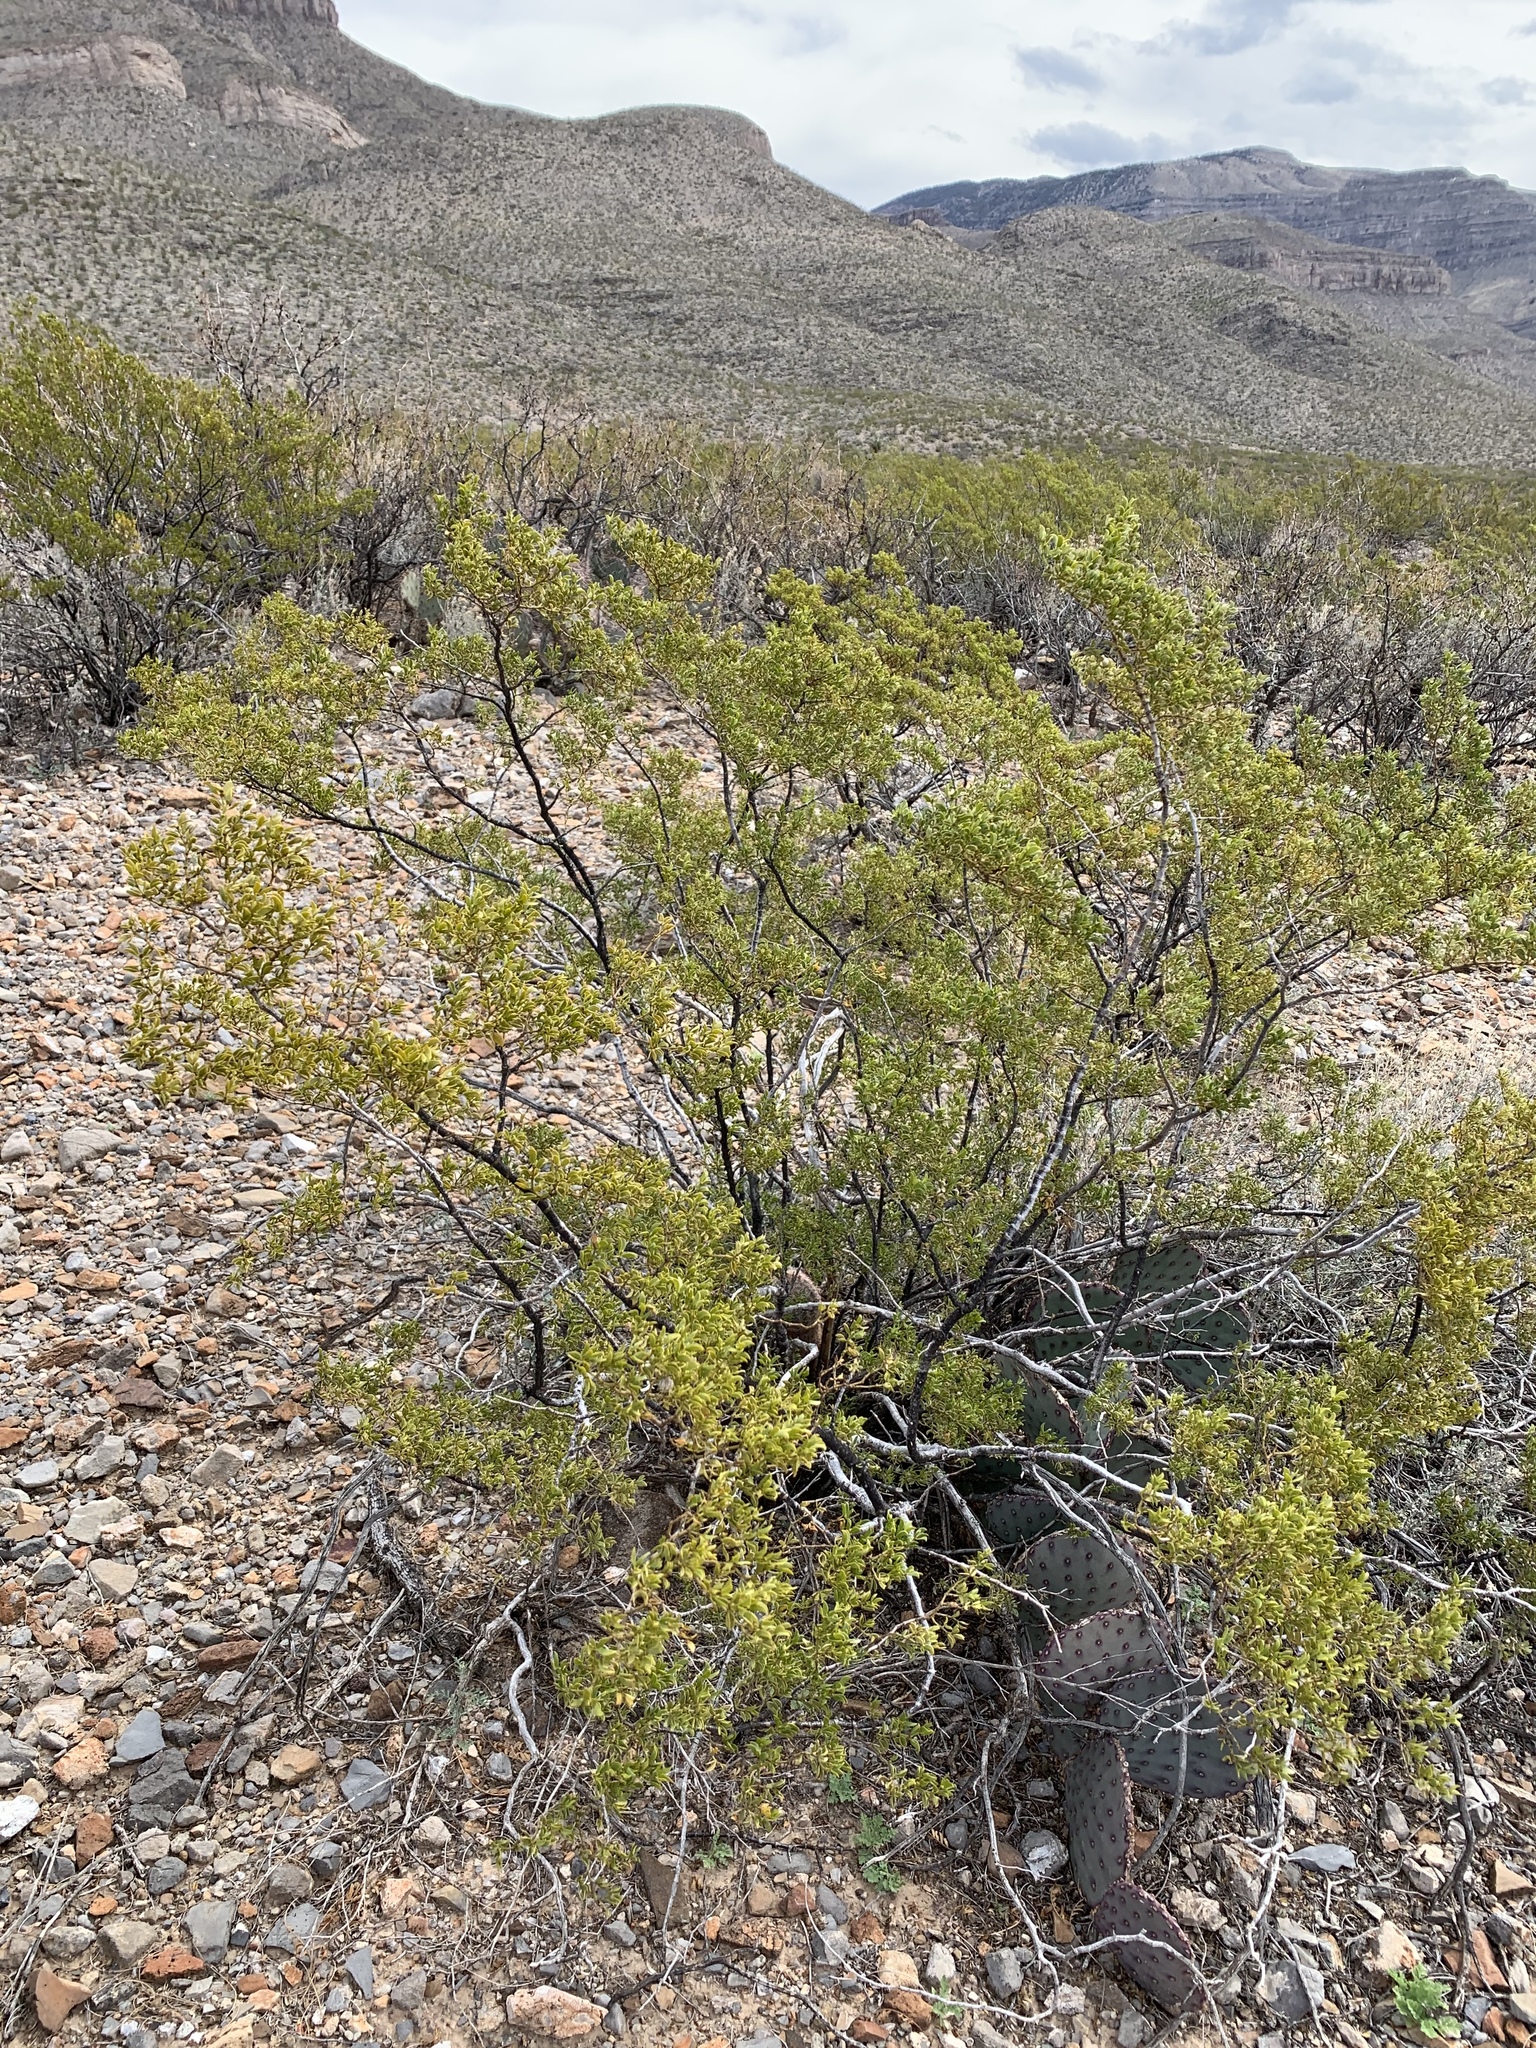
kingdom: Plantae
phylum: Tracheophyta
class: Magnoliopsida
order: Zygophyllales
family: Zygophyllaceae
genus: Larrea
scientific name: Larrea tridentata
